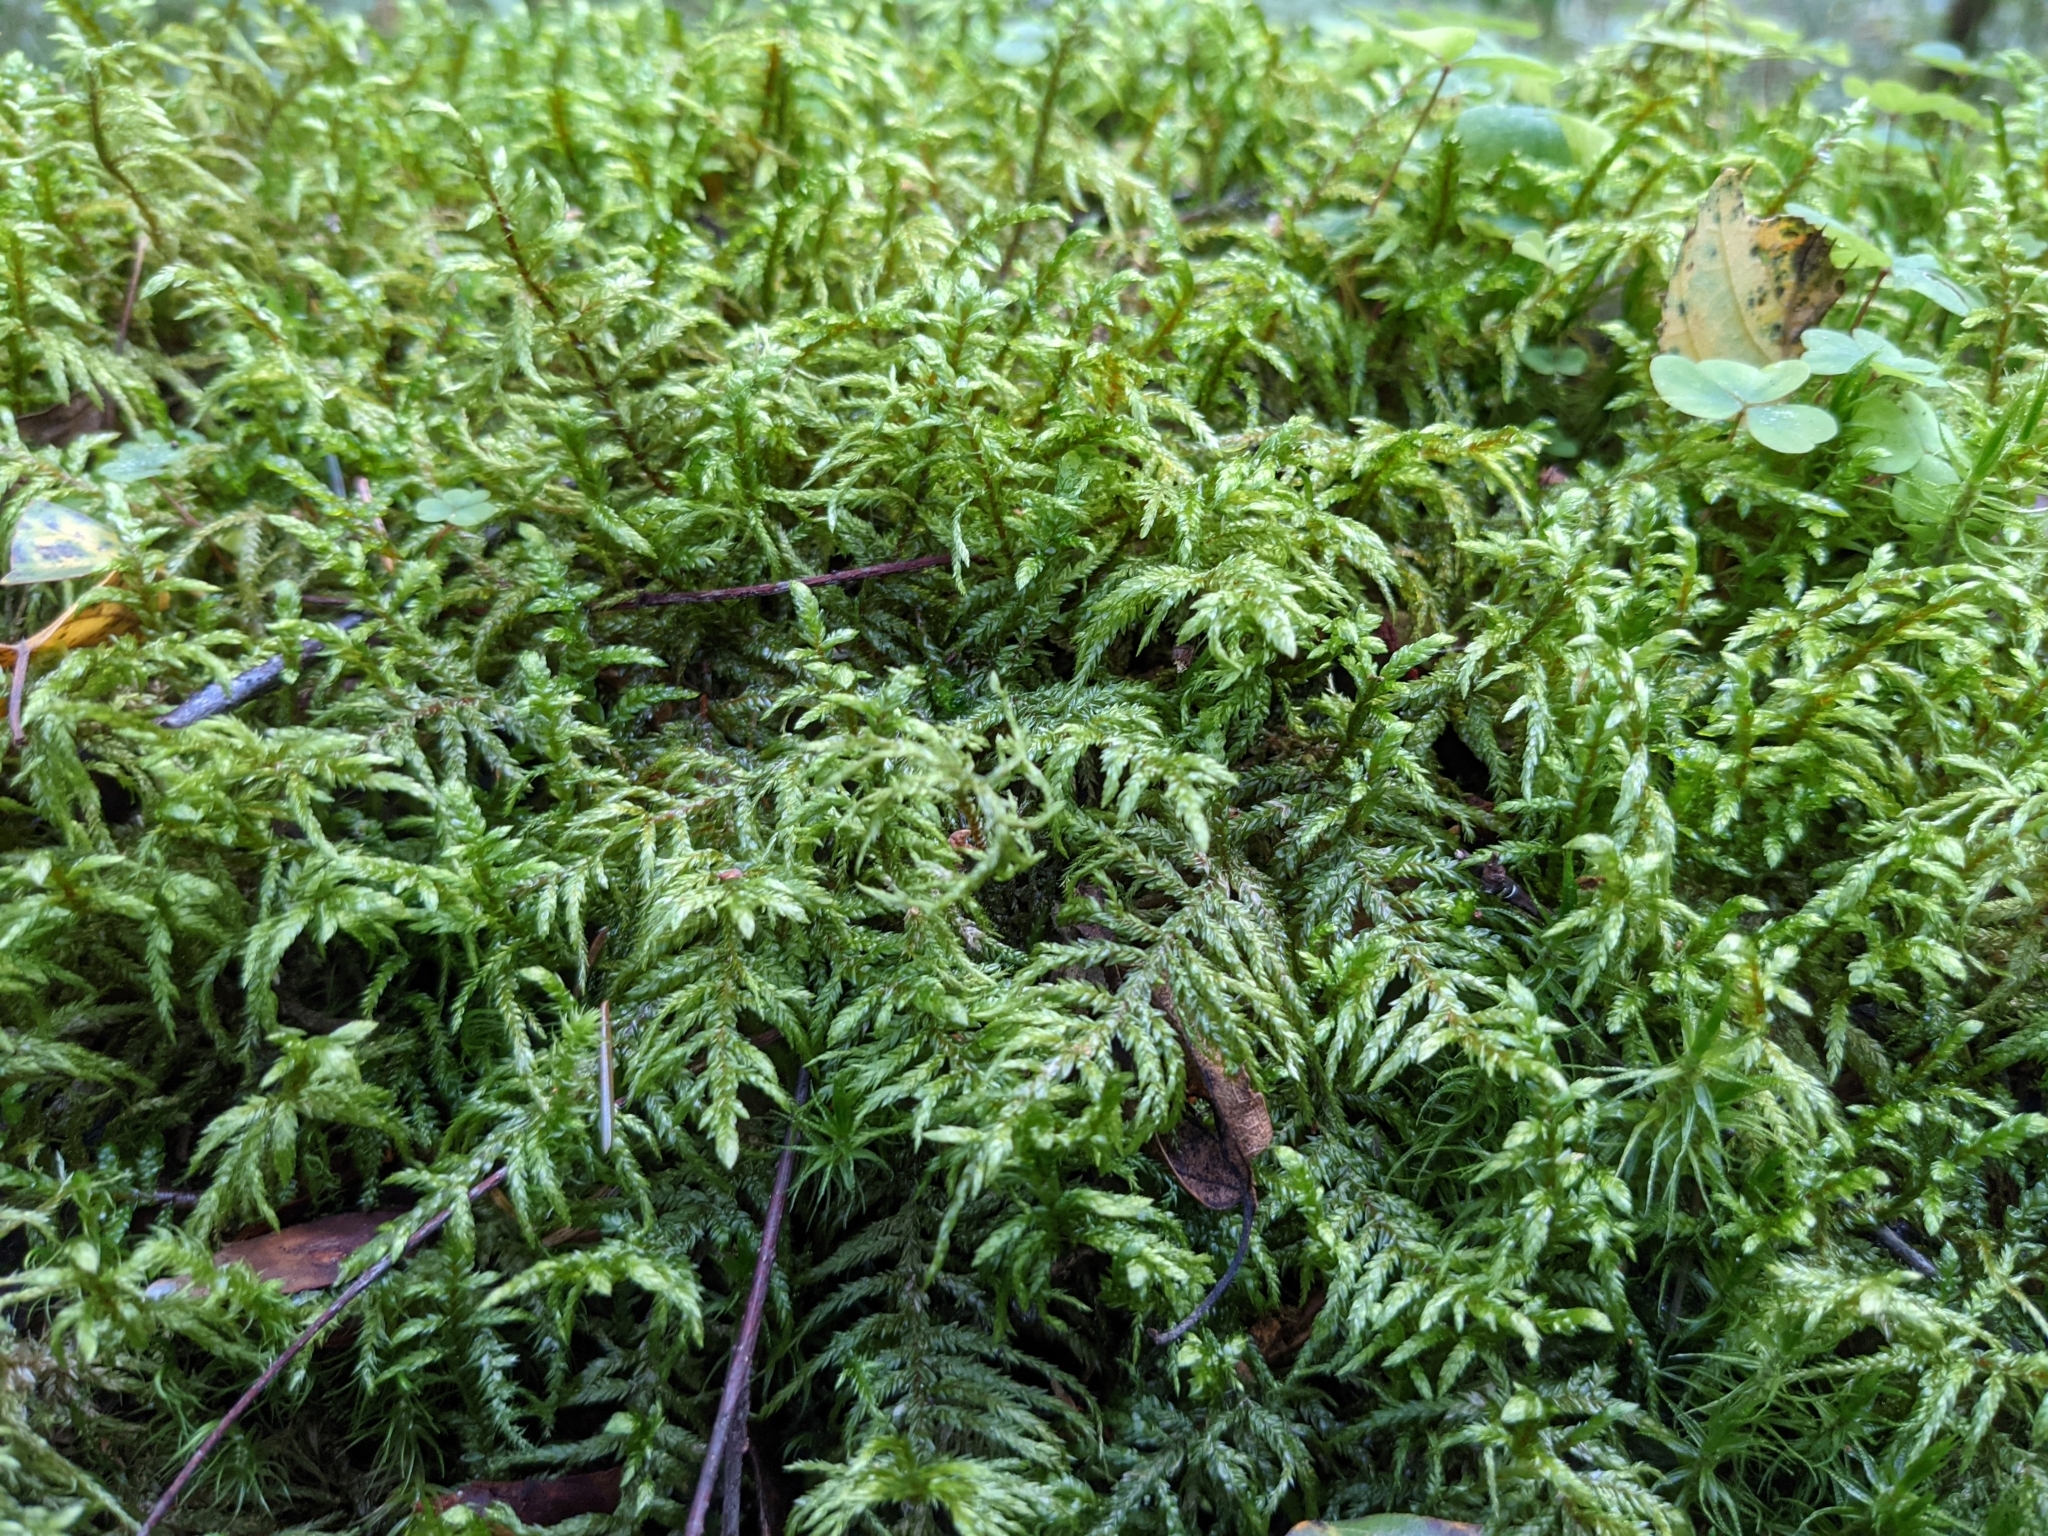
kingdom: Plantae
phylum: Bryophyta
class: Bryopsida
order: Hypnales
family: Hylocomiaceae
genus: Pleurozium
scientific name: Pleurozium schreberi
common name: Red-stemmed feather moss
